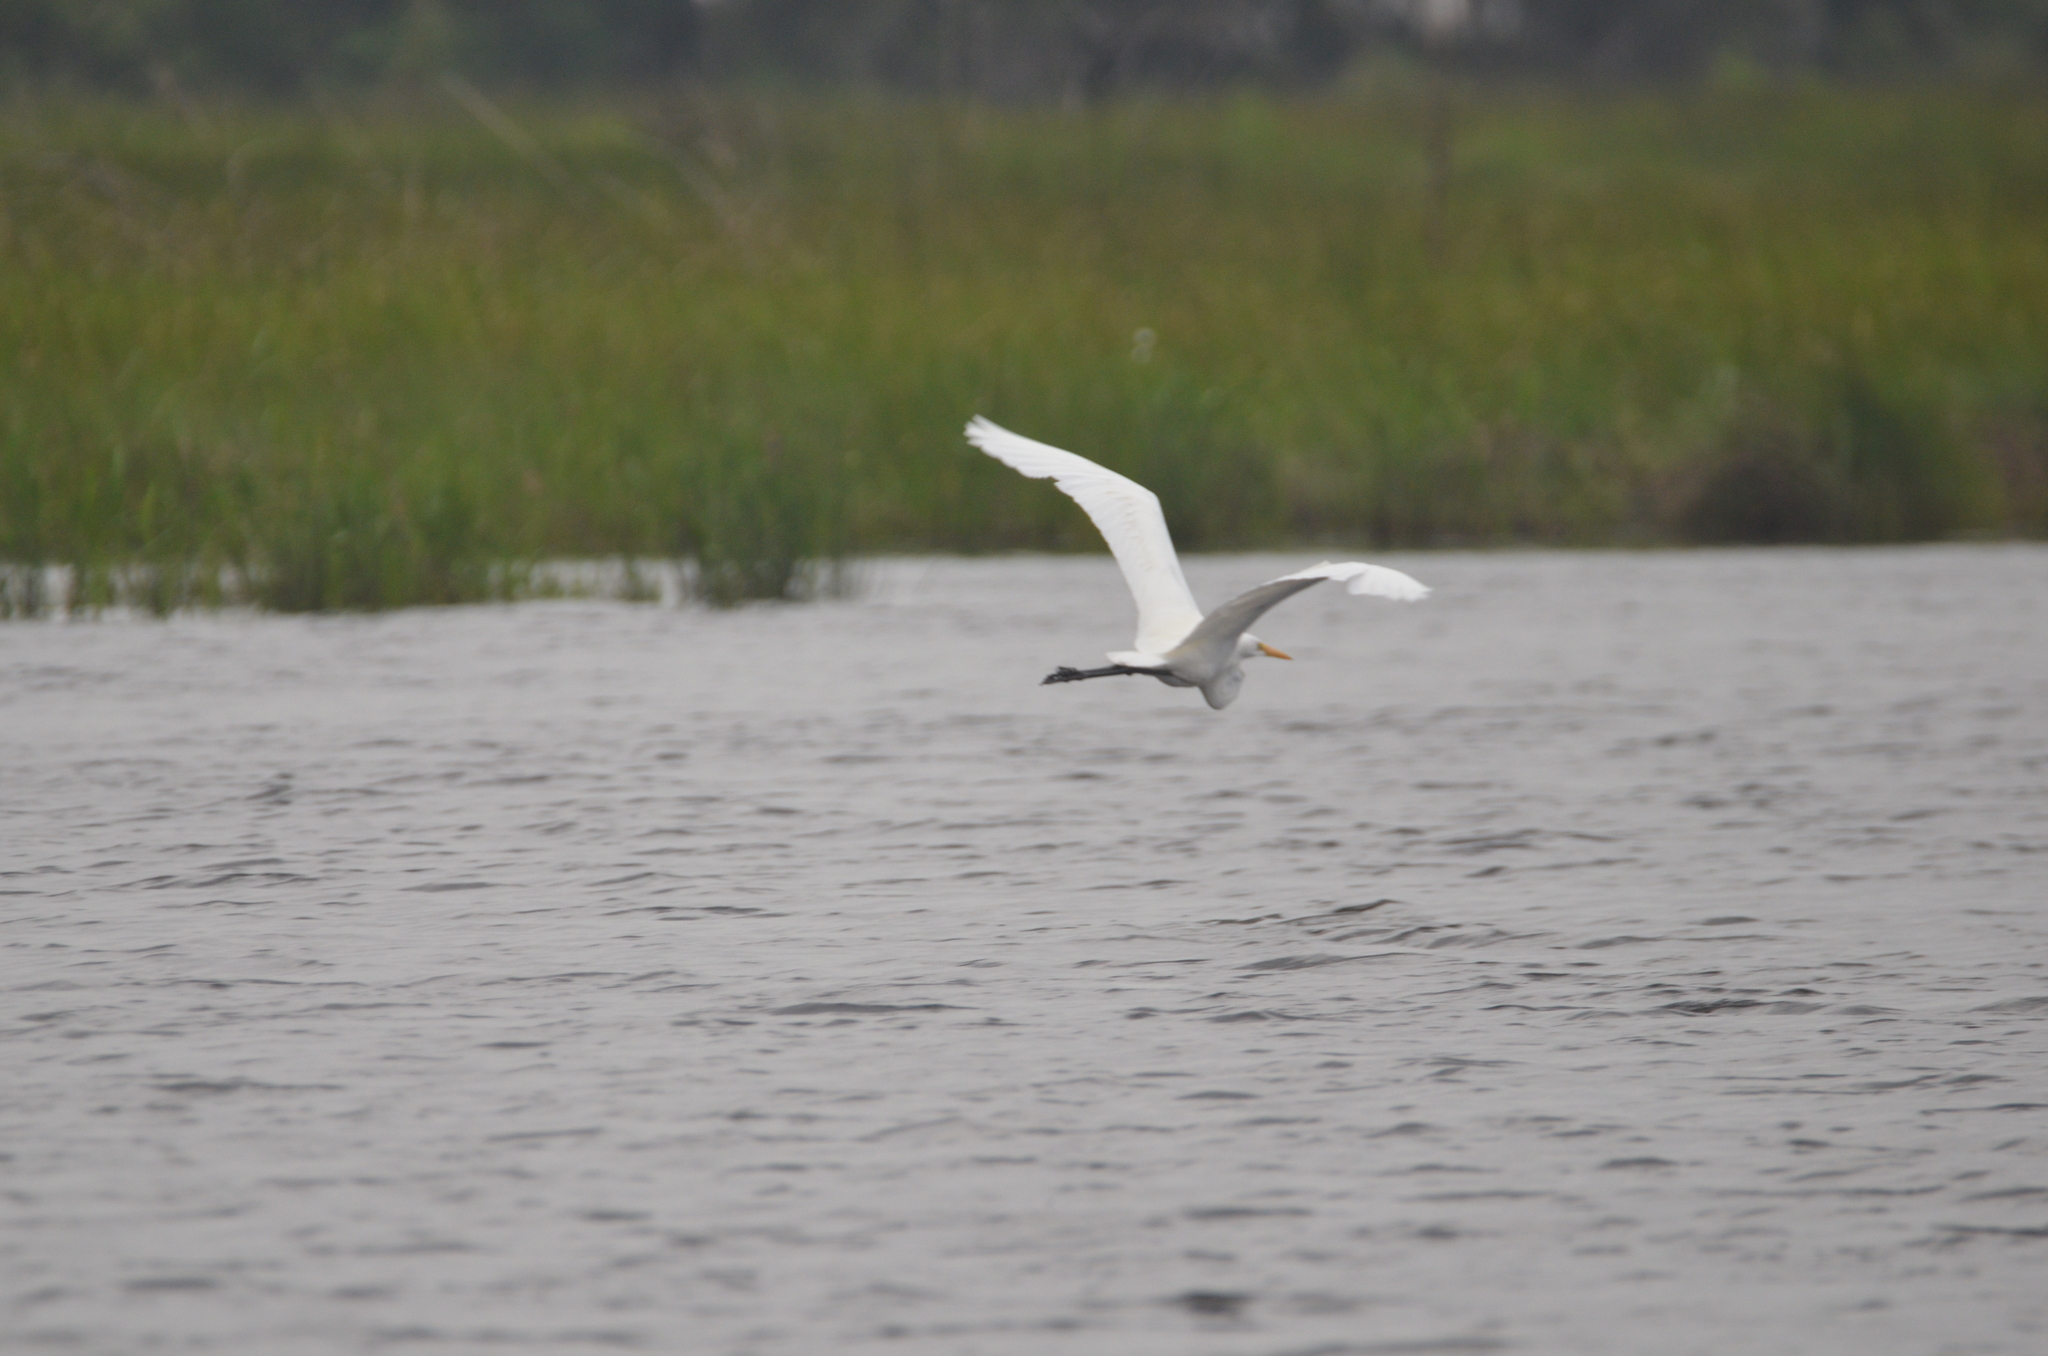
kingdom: Animalia
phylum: Chordata
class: Aves
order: Pelecaniformes
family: Ardeidae
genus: Ardea
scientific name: Ardea alba
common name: Great egret
